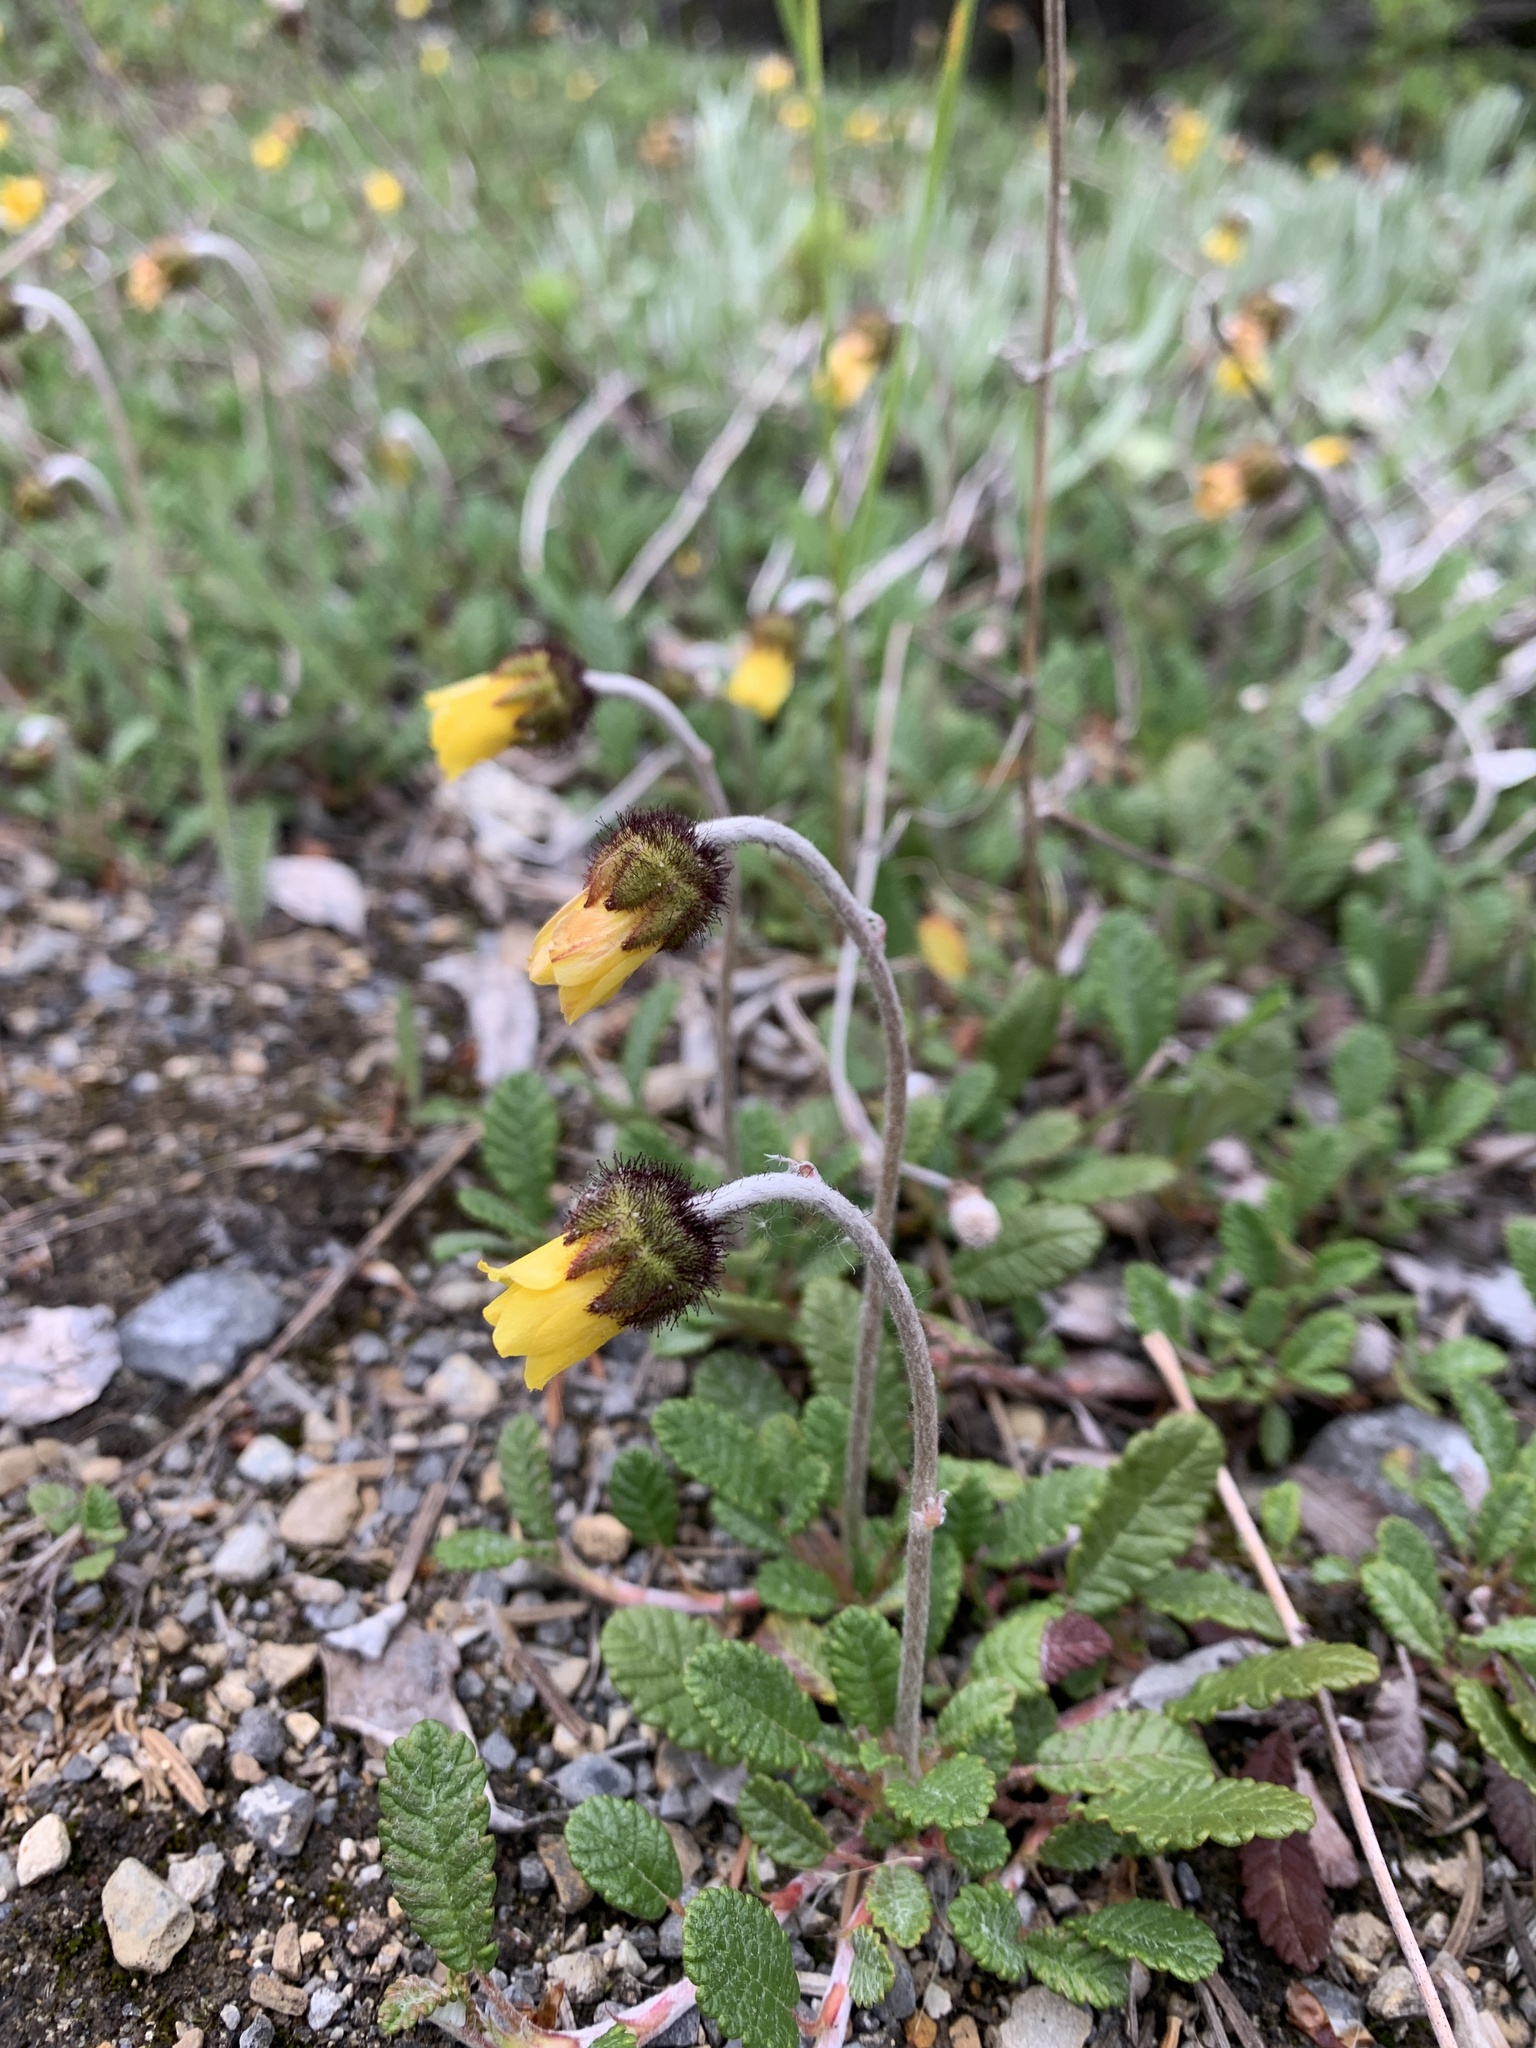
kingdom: Plantae
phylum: Tracheophyta
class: Magnoliopsida
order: Rosales
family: Rosaceae
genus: Dryas
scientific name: Dryas drummondii
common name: Drummond's dryad
